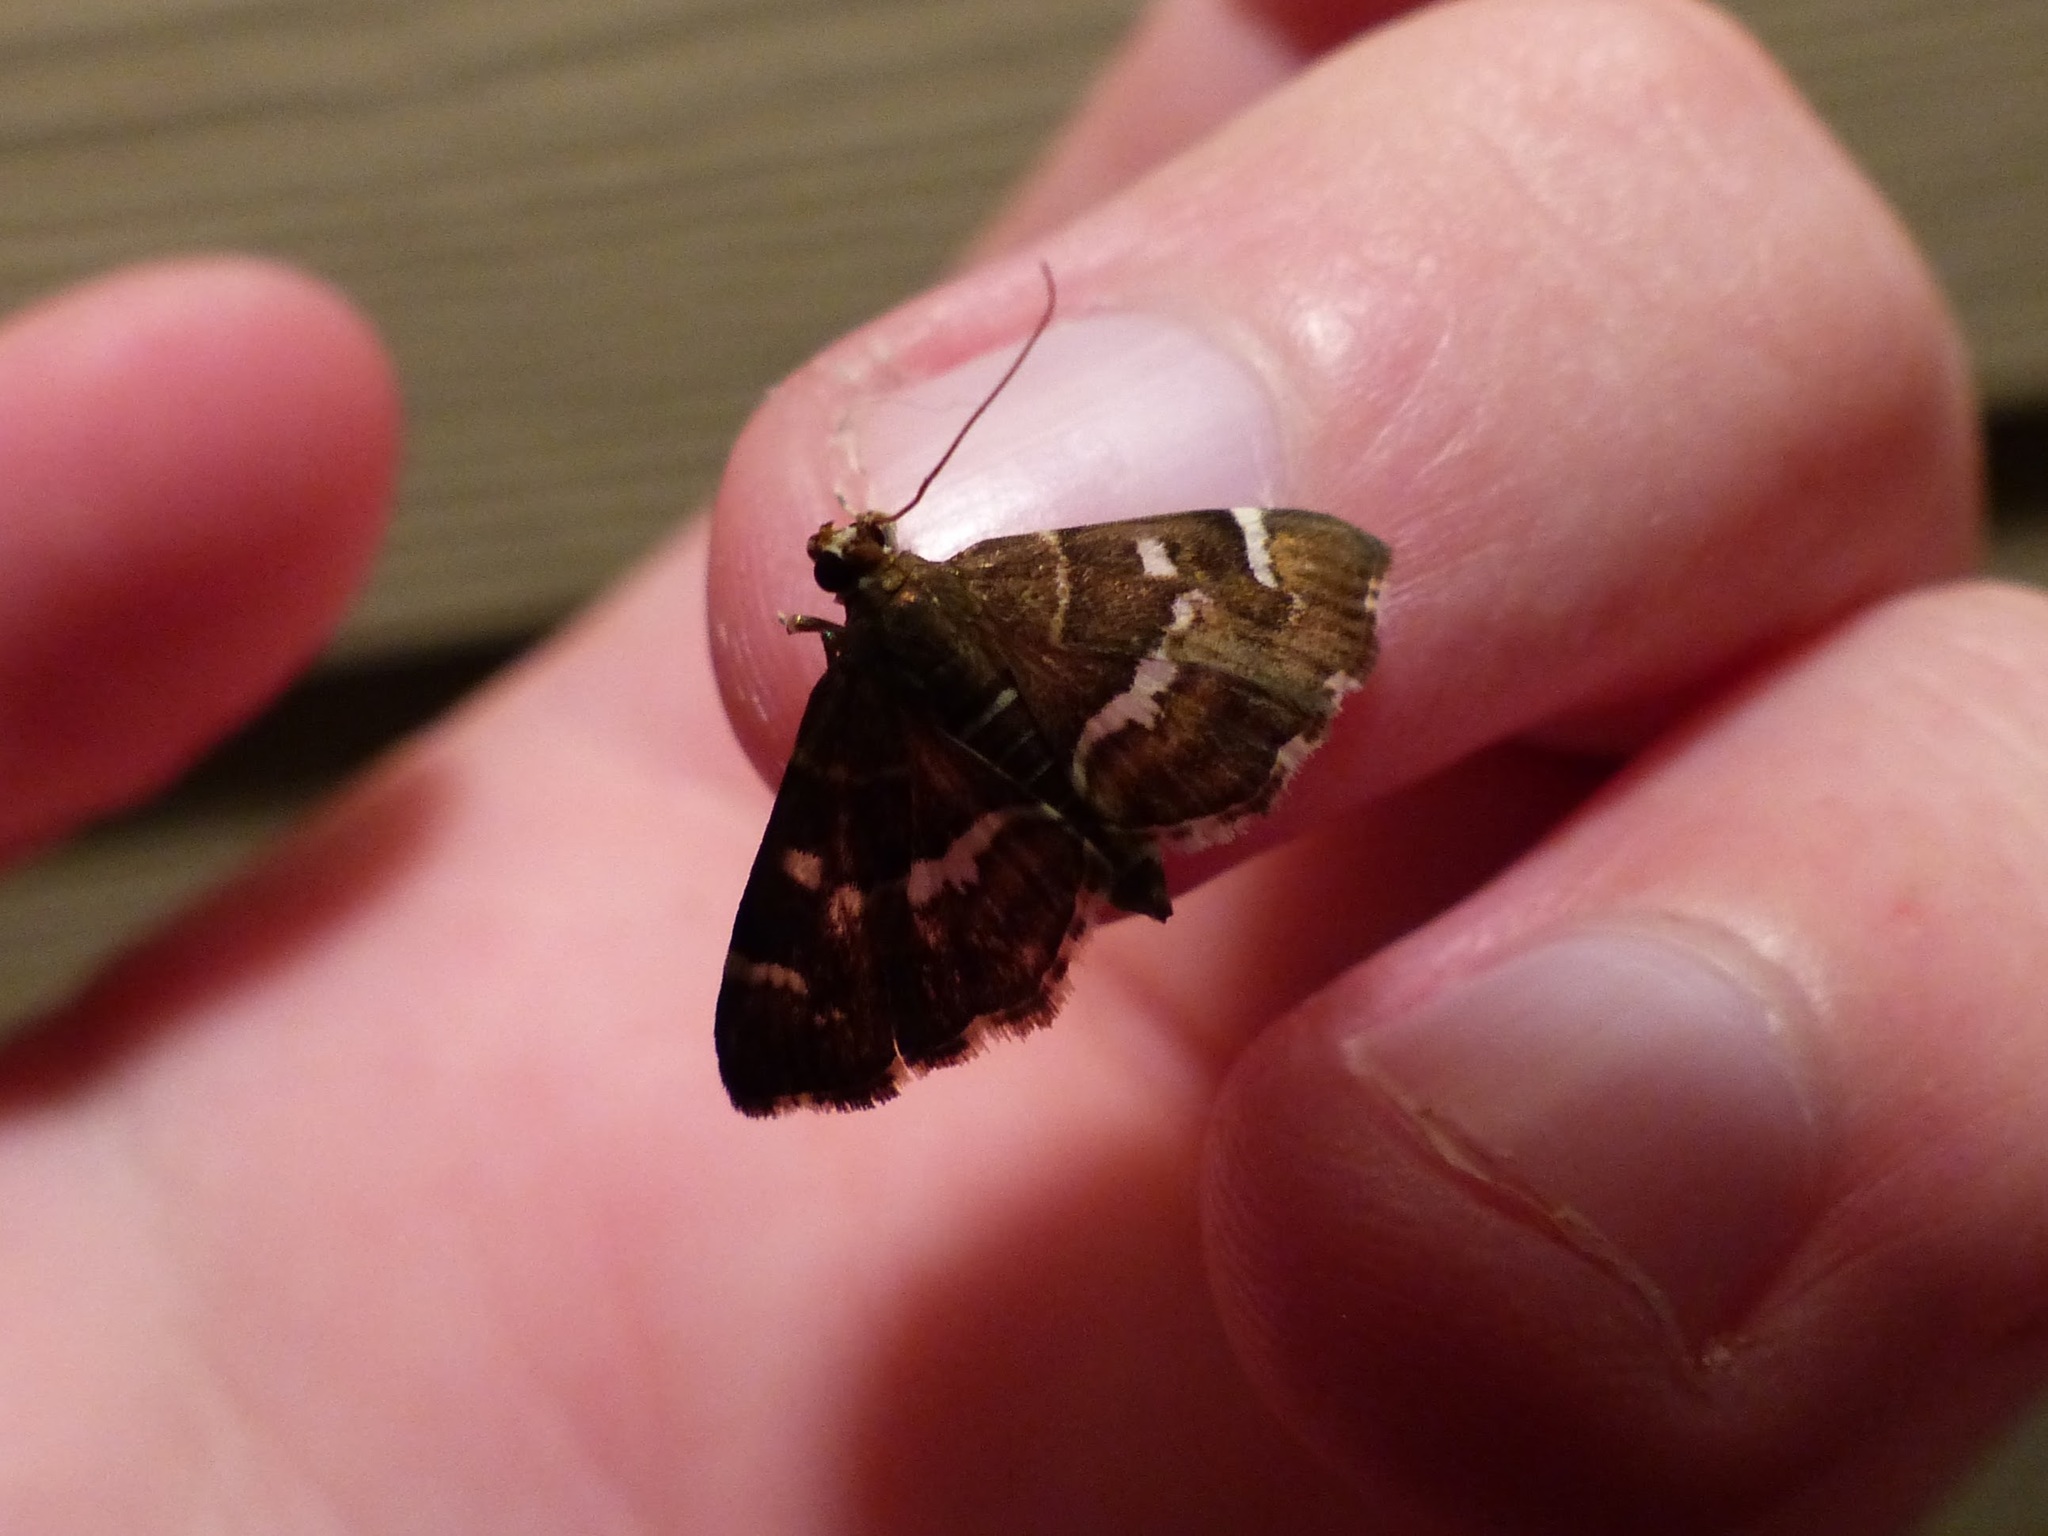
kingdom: Animalia
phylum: Arthropoda
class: Insecta
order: Lepidoptera
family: Crambidae
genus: Hymenia
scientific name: Hymenia perspectalis
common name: Spotted beet webworm
